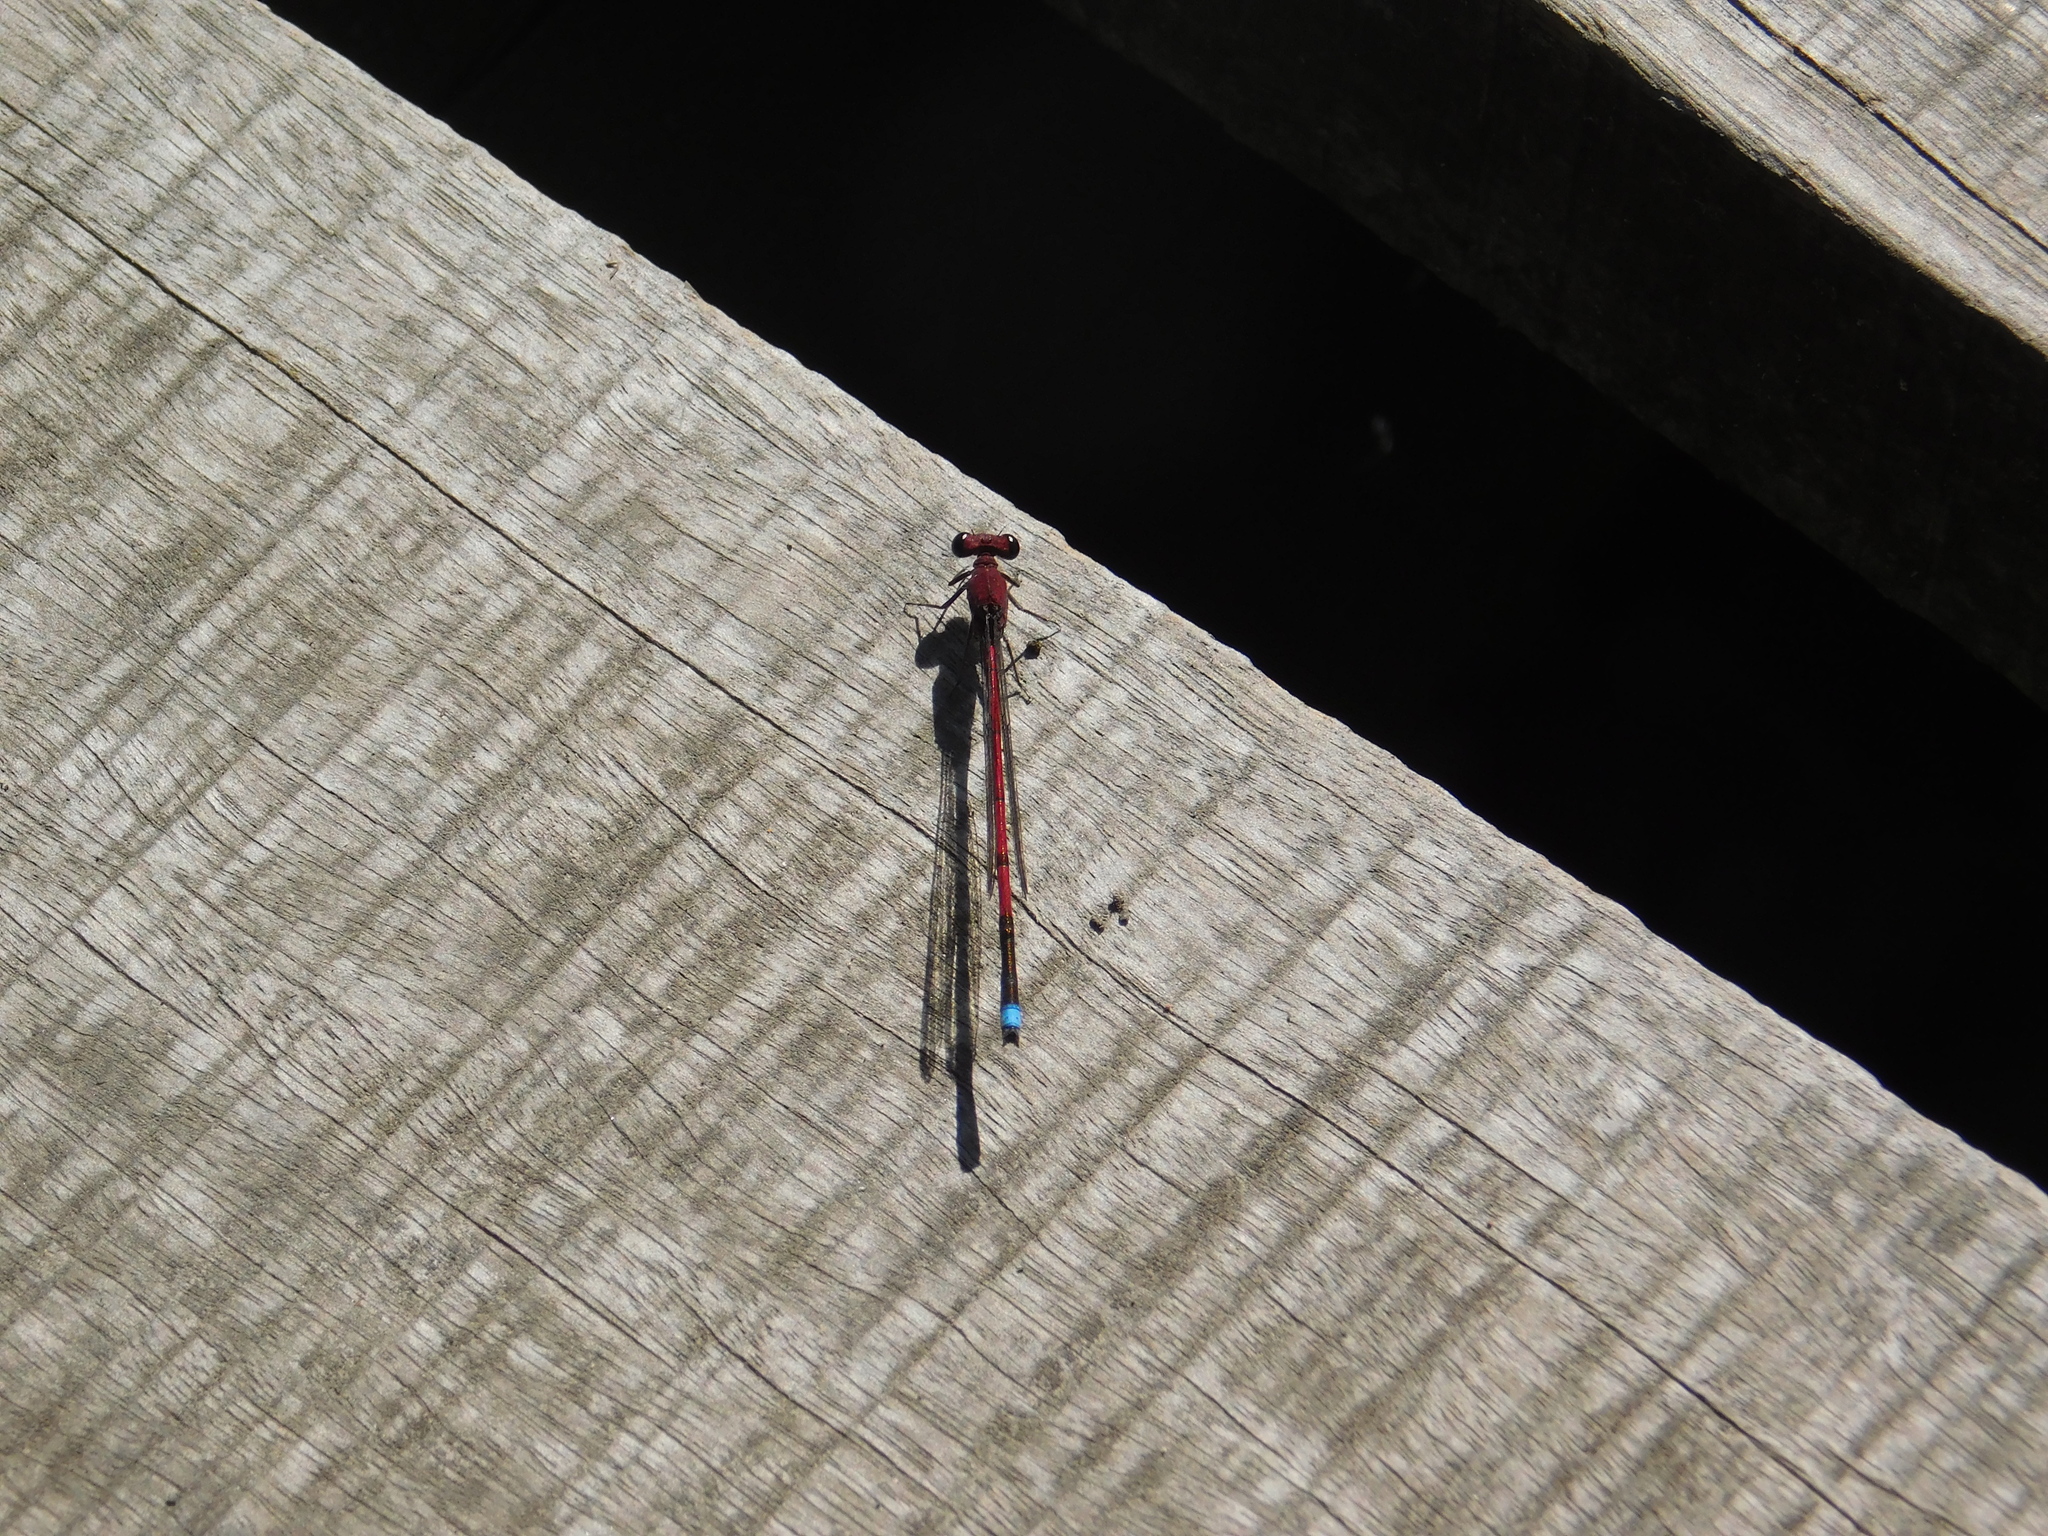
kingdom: Animalia
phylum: Arthropoda
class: Insecta
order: Odonata
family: Coenagrionidae
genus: Oxyagrion
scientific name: Oxyagrion terminale
